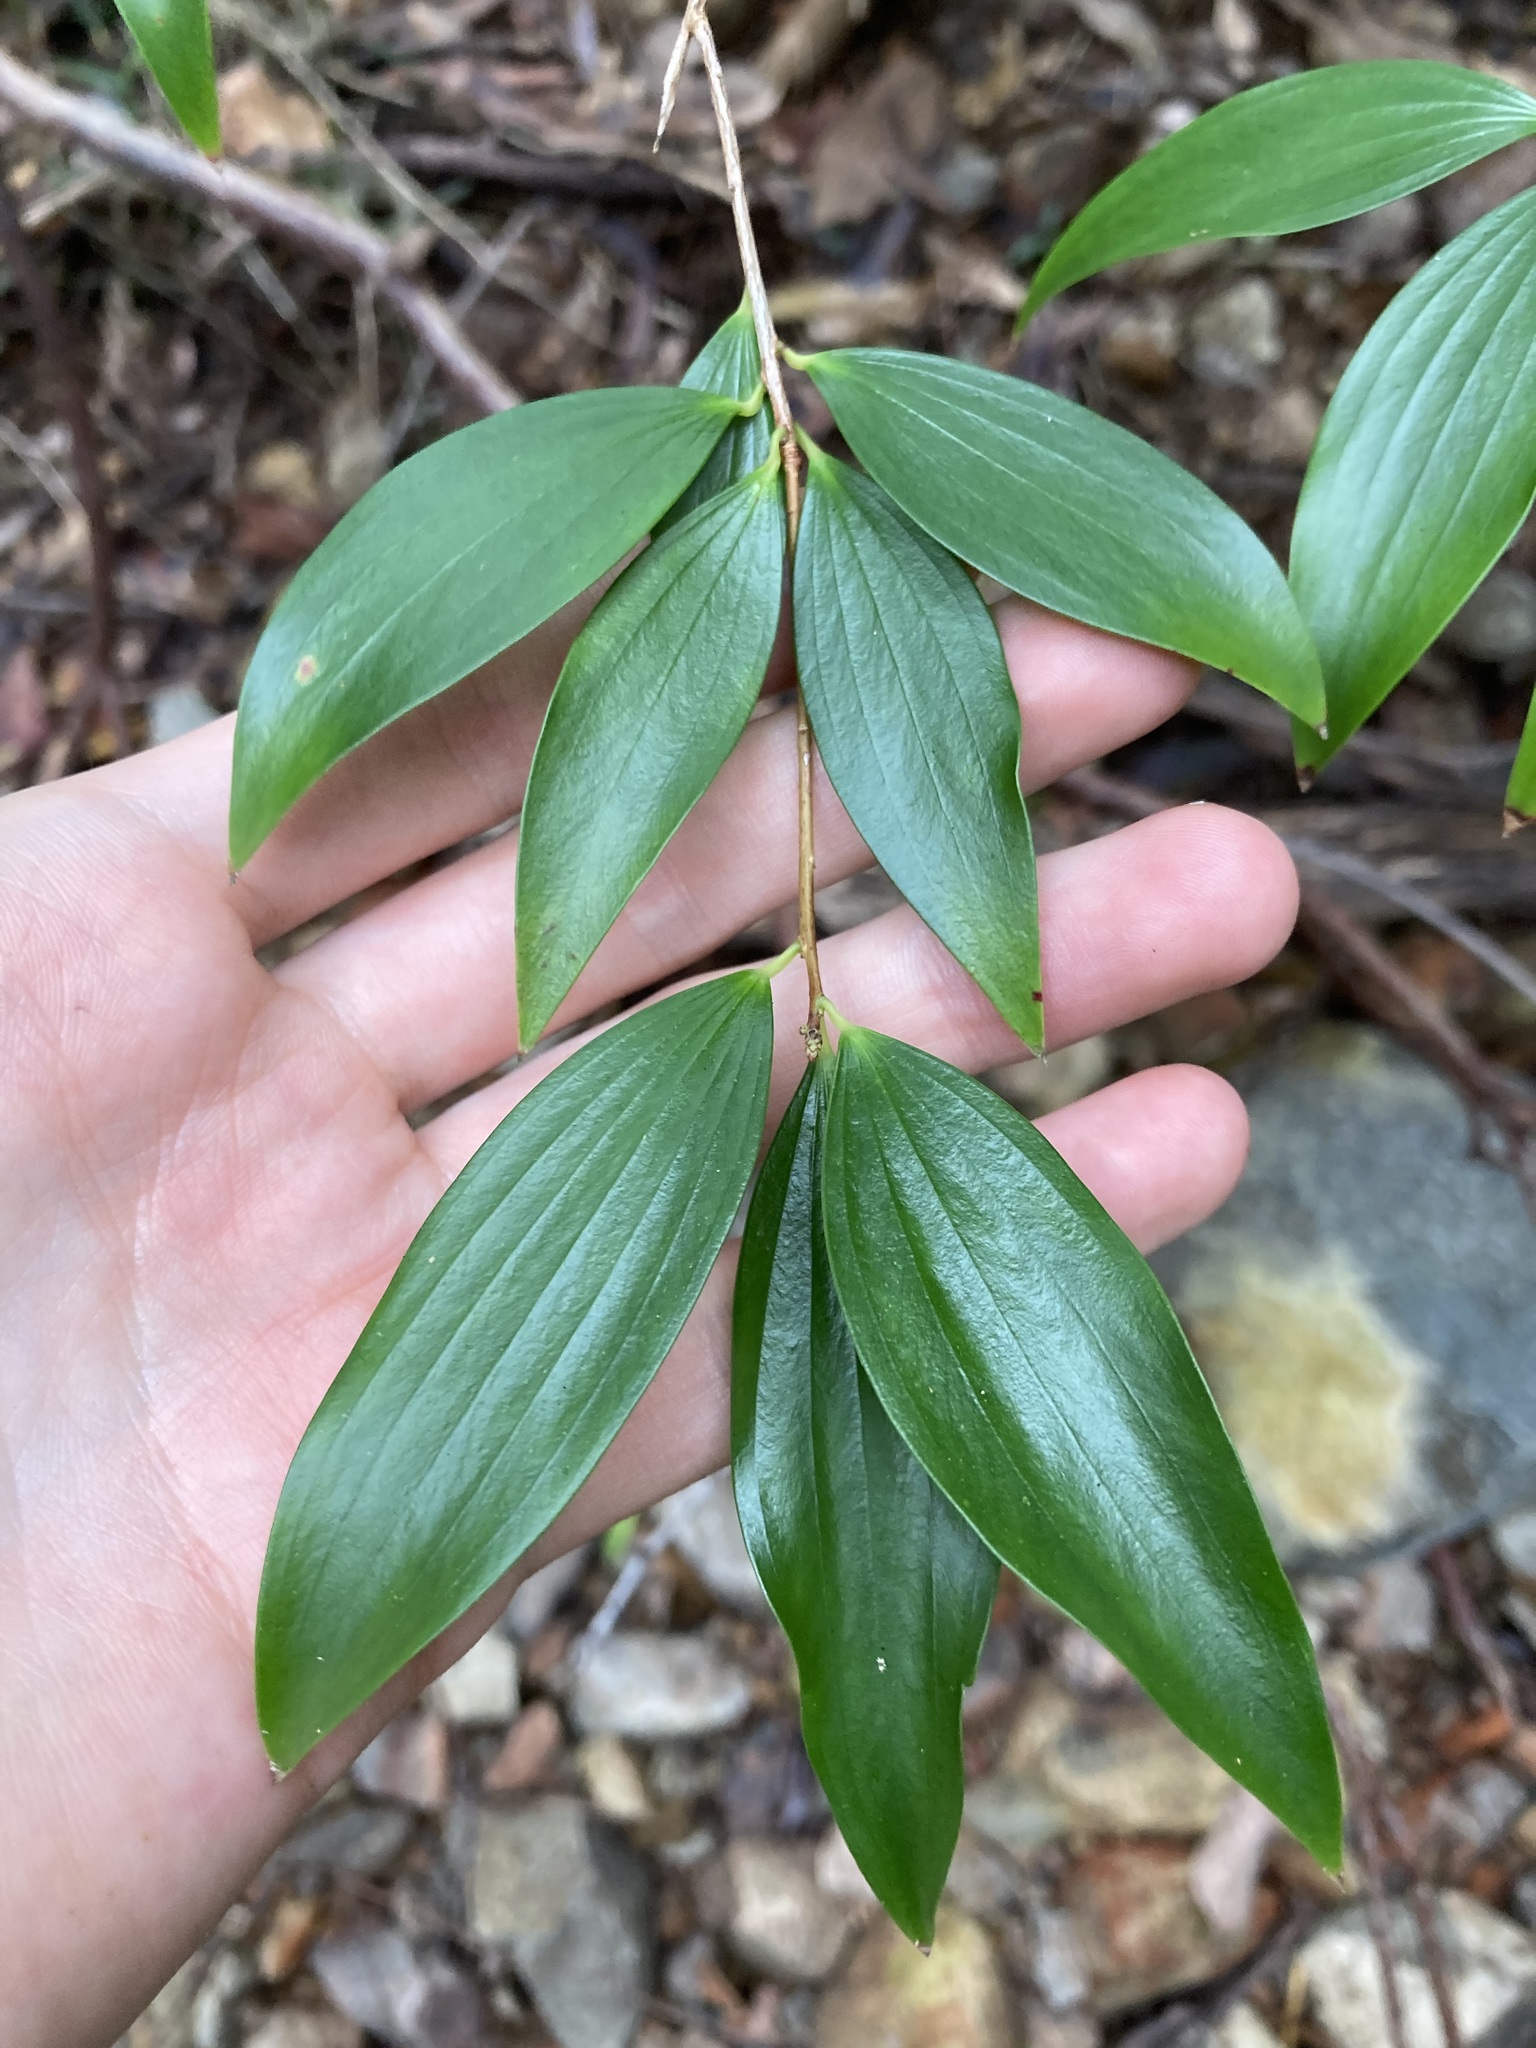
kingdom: Plantae
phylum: Tracheophyta
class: Magnoliopsida
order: Ericales
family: Ericaceae
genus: Trochocarpa
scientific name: Trochocarpa laurina
